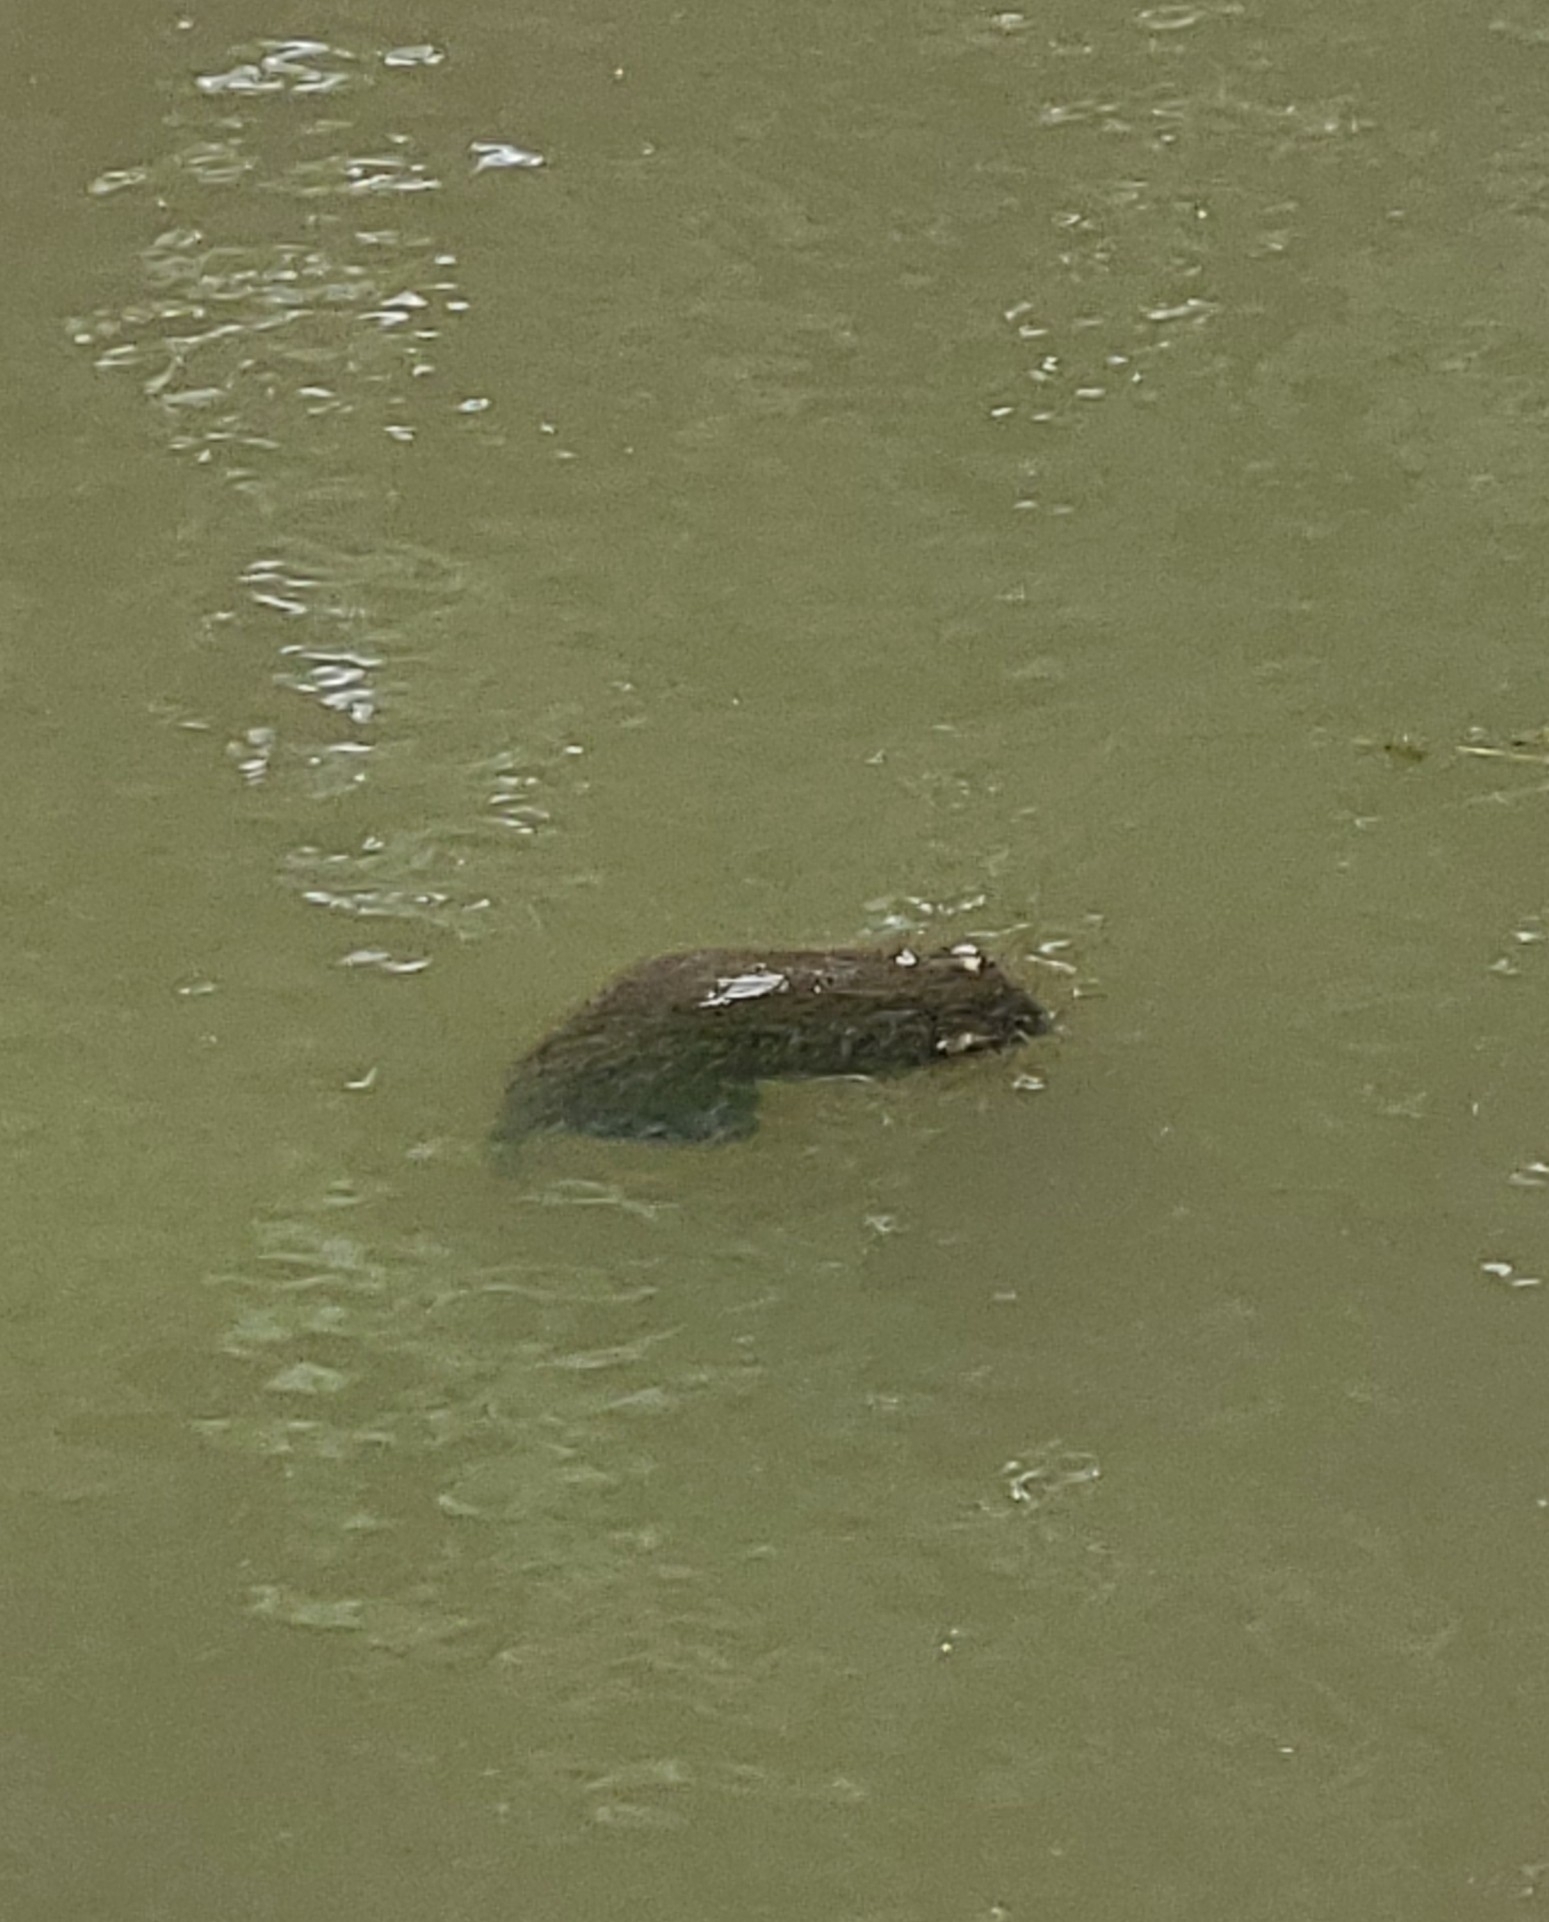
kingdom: Animalia
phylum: Chordata
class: Mammalia
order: Rodentia
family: Muridae
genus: Rattus
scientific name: Rattus norvegicus
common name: Brown rat
